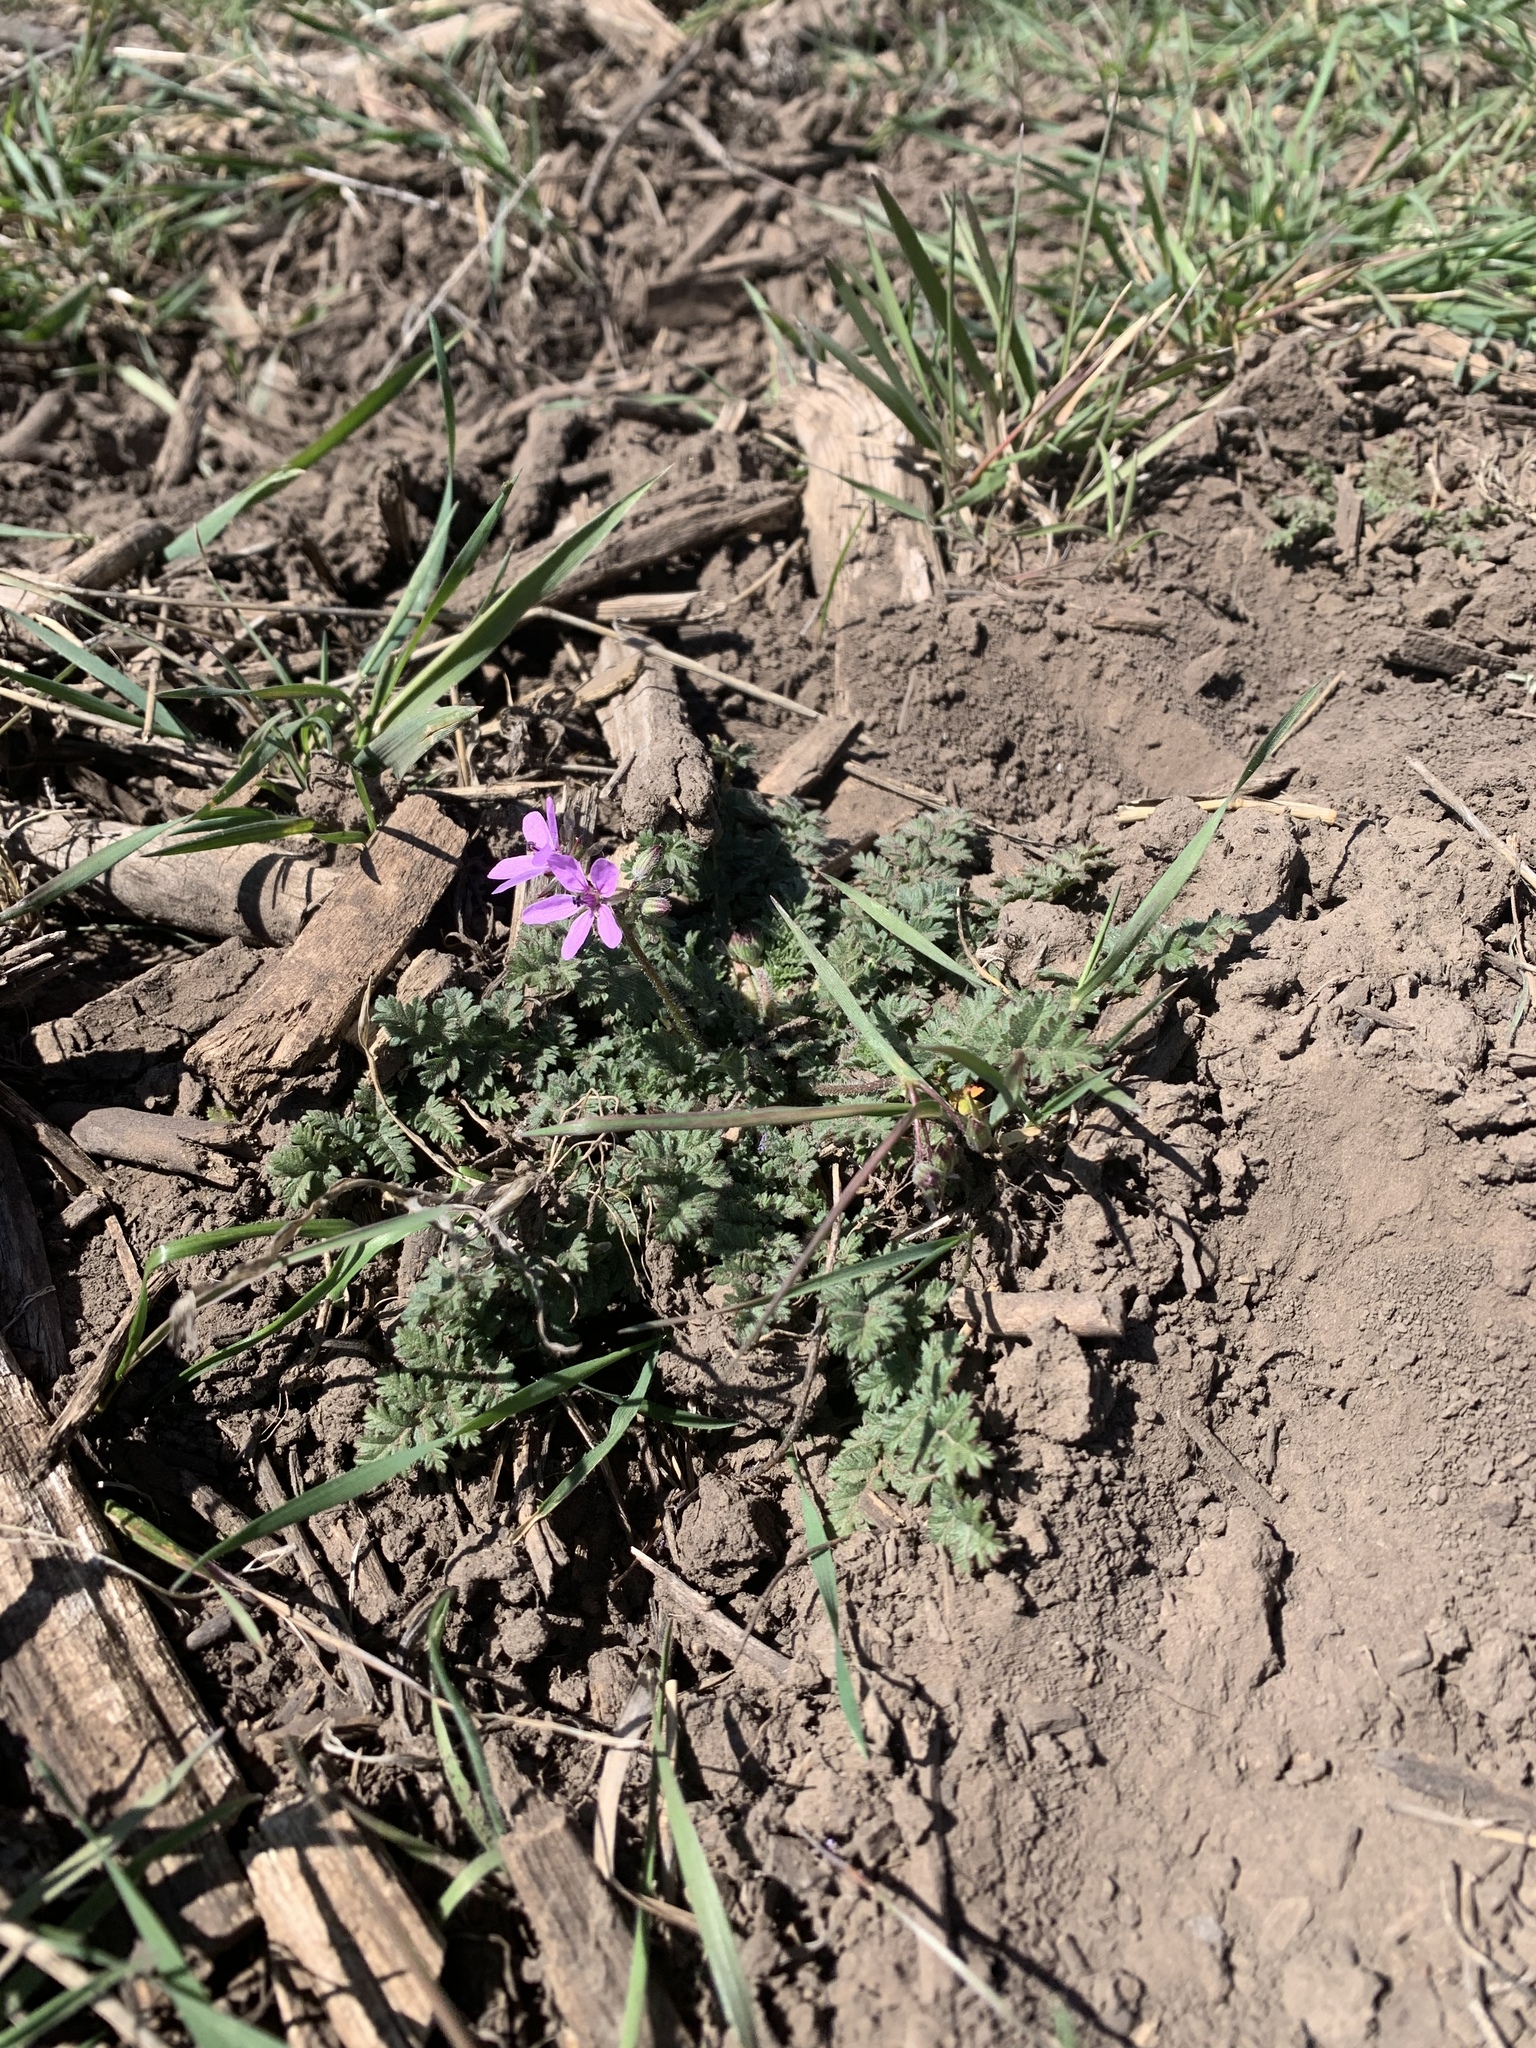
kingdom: Plantae
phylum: Tracheophyta
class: Magnoliopsida
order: Geraniales
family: Geraniaceae
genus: Erodium
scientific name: Erodium cicutarium
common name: Common stork's-bill
